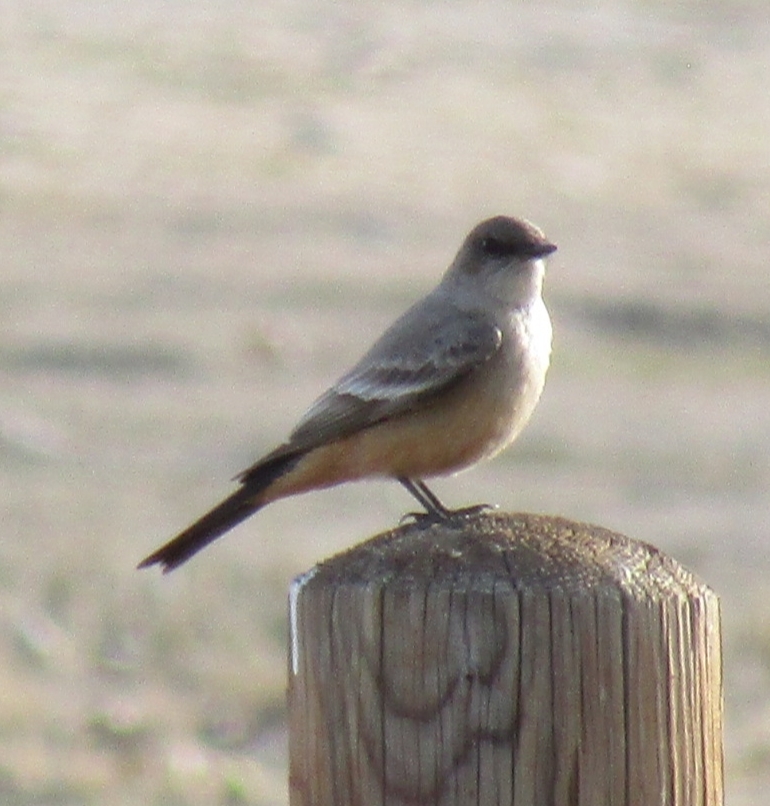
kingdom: Animalia
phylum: Chordata
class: Aves
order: Passeriformes
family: Tyrannidae
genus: Sayornis
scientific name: Sayornis saya
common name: Say's phoebe
